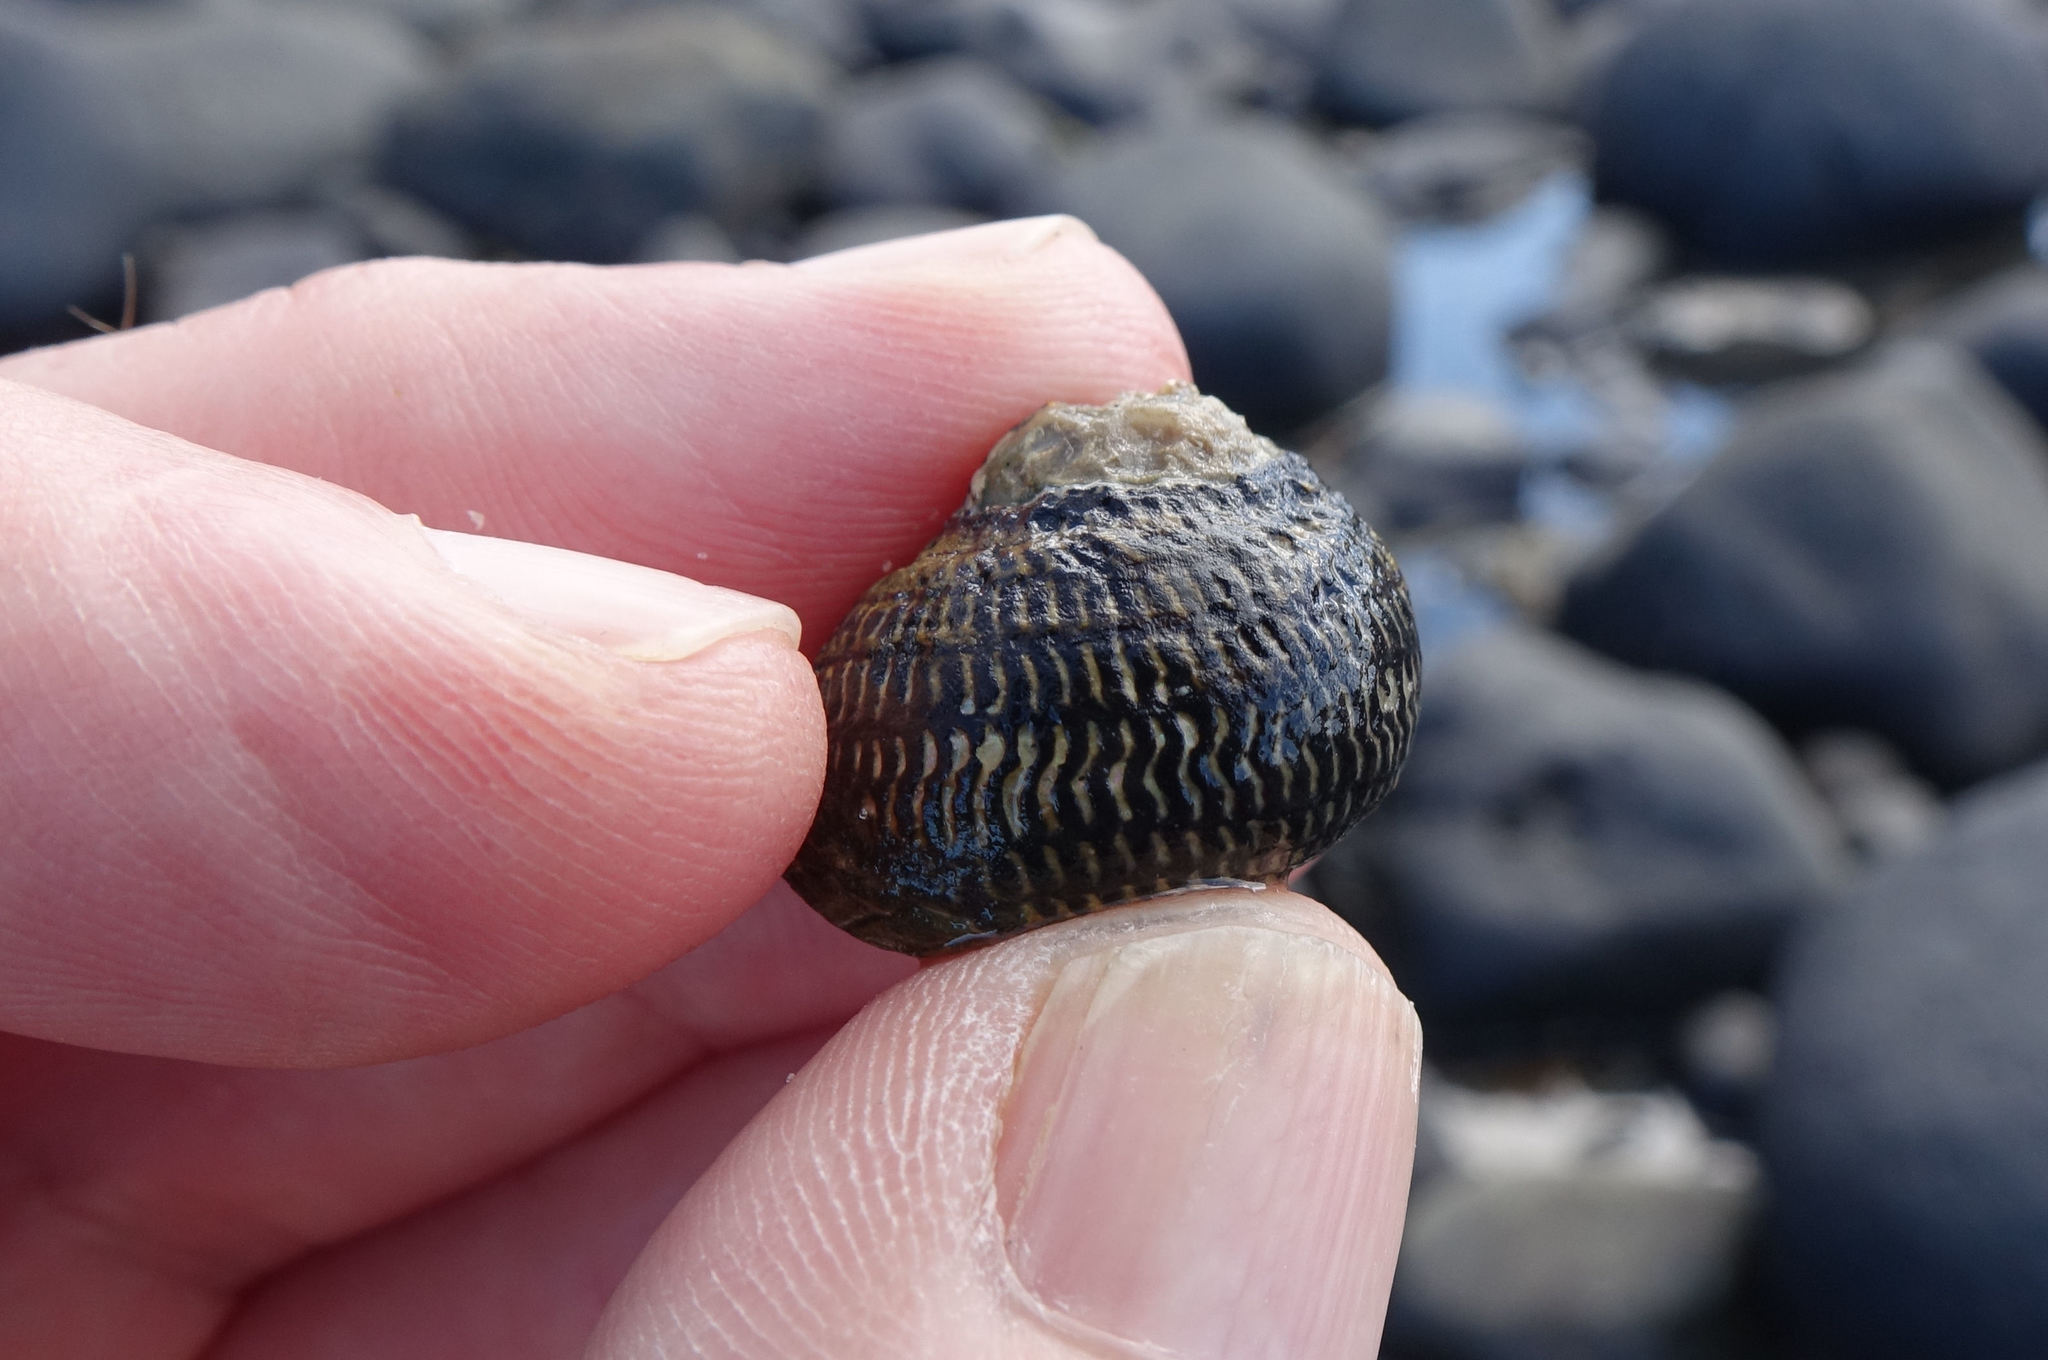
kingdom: Animalia
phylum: Mollusca
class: Gastropoda
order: Trochida
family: Trochidae
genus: Diloma
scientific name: Diloma aethiops
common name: Scorched monodont
